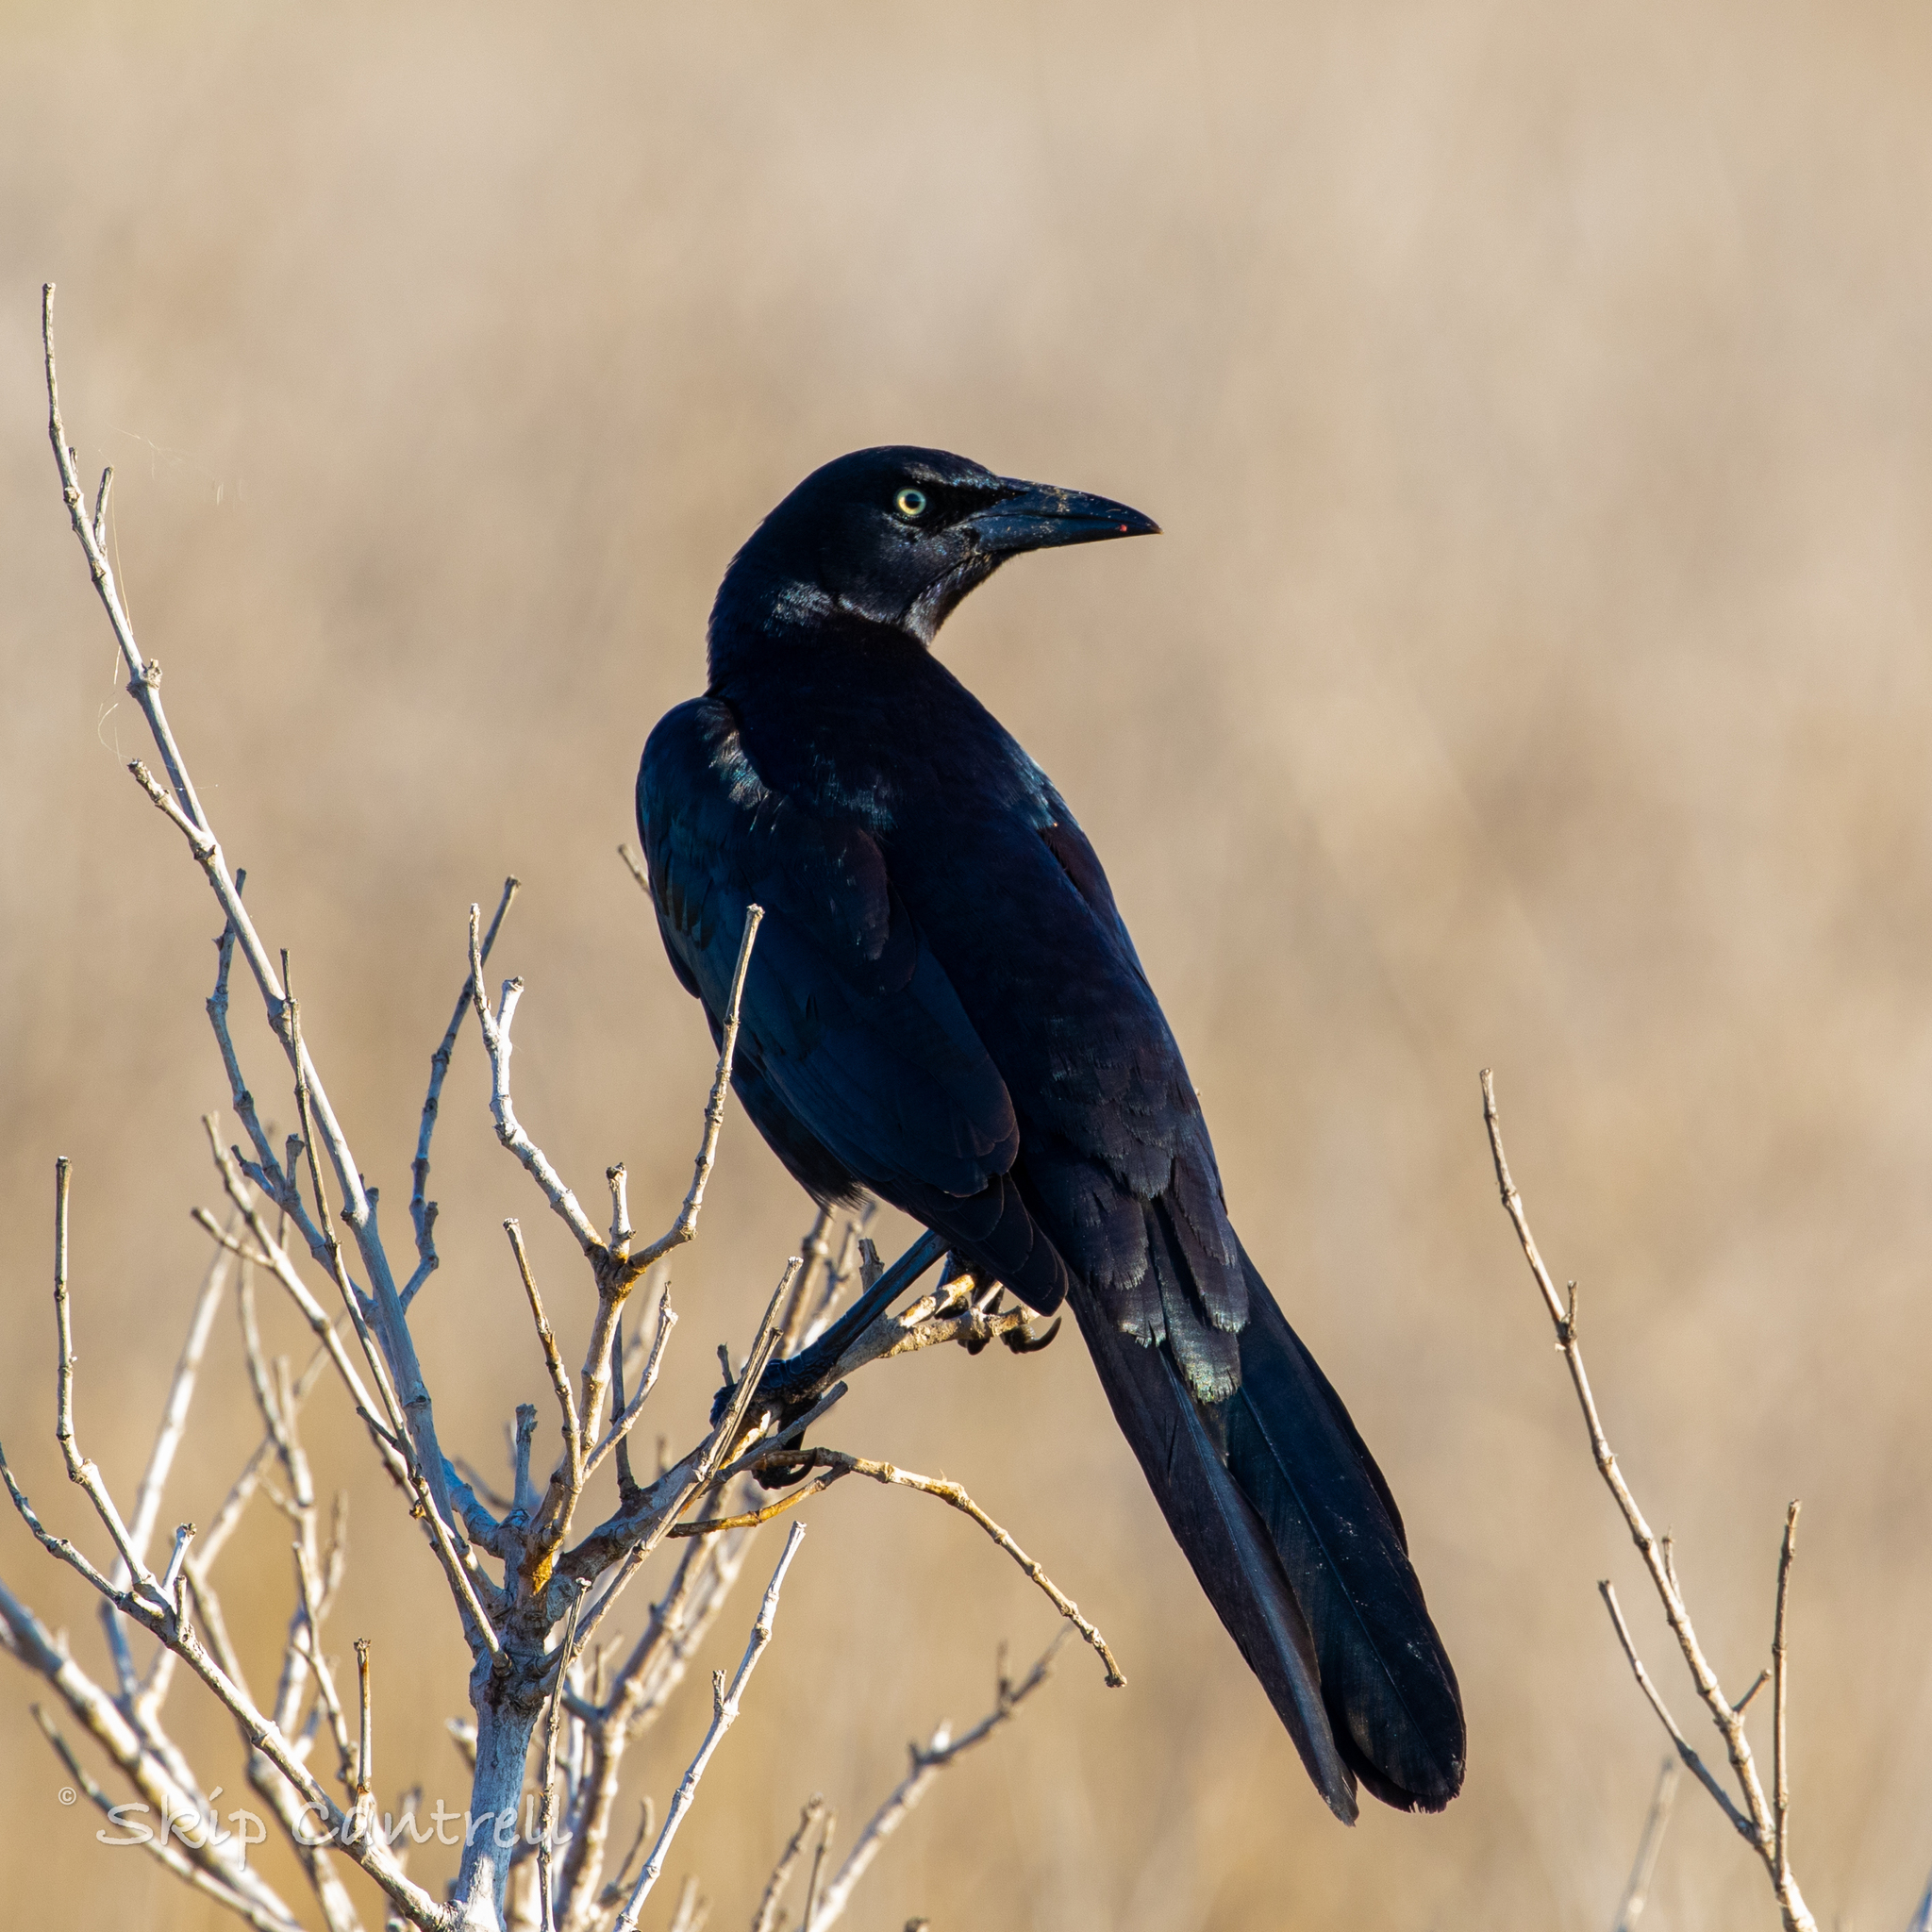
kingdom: Animalia
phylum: Chordata
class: Aves
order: Passeriformes
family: Icteridae
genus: Quiscalus
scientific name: Quiscalus mexicanus
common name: Great-tailed grackle
